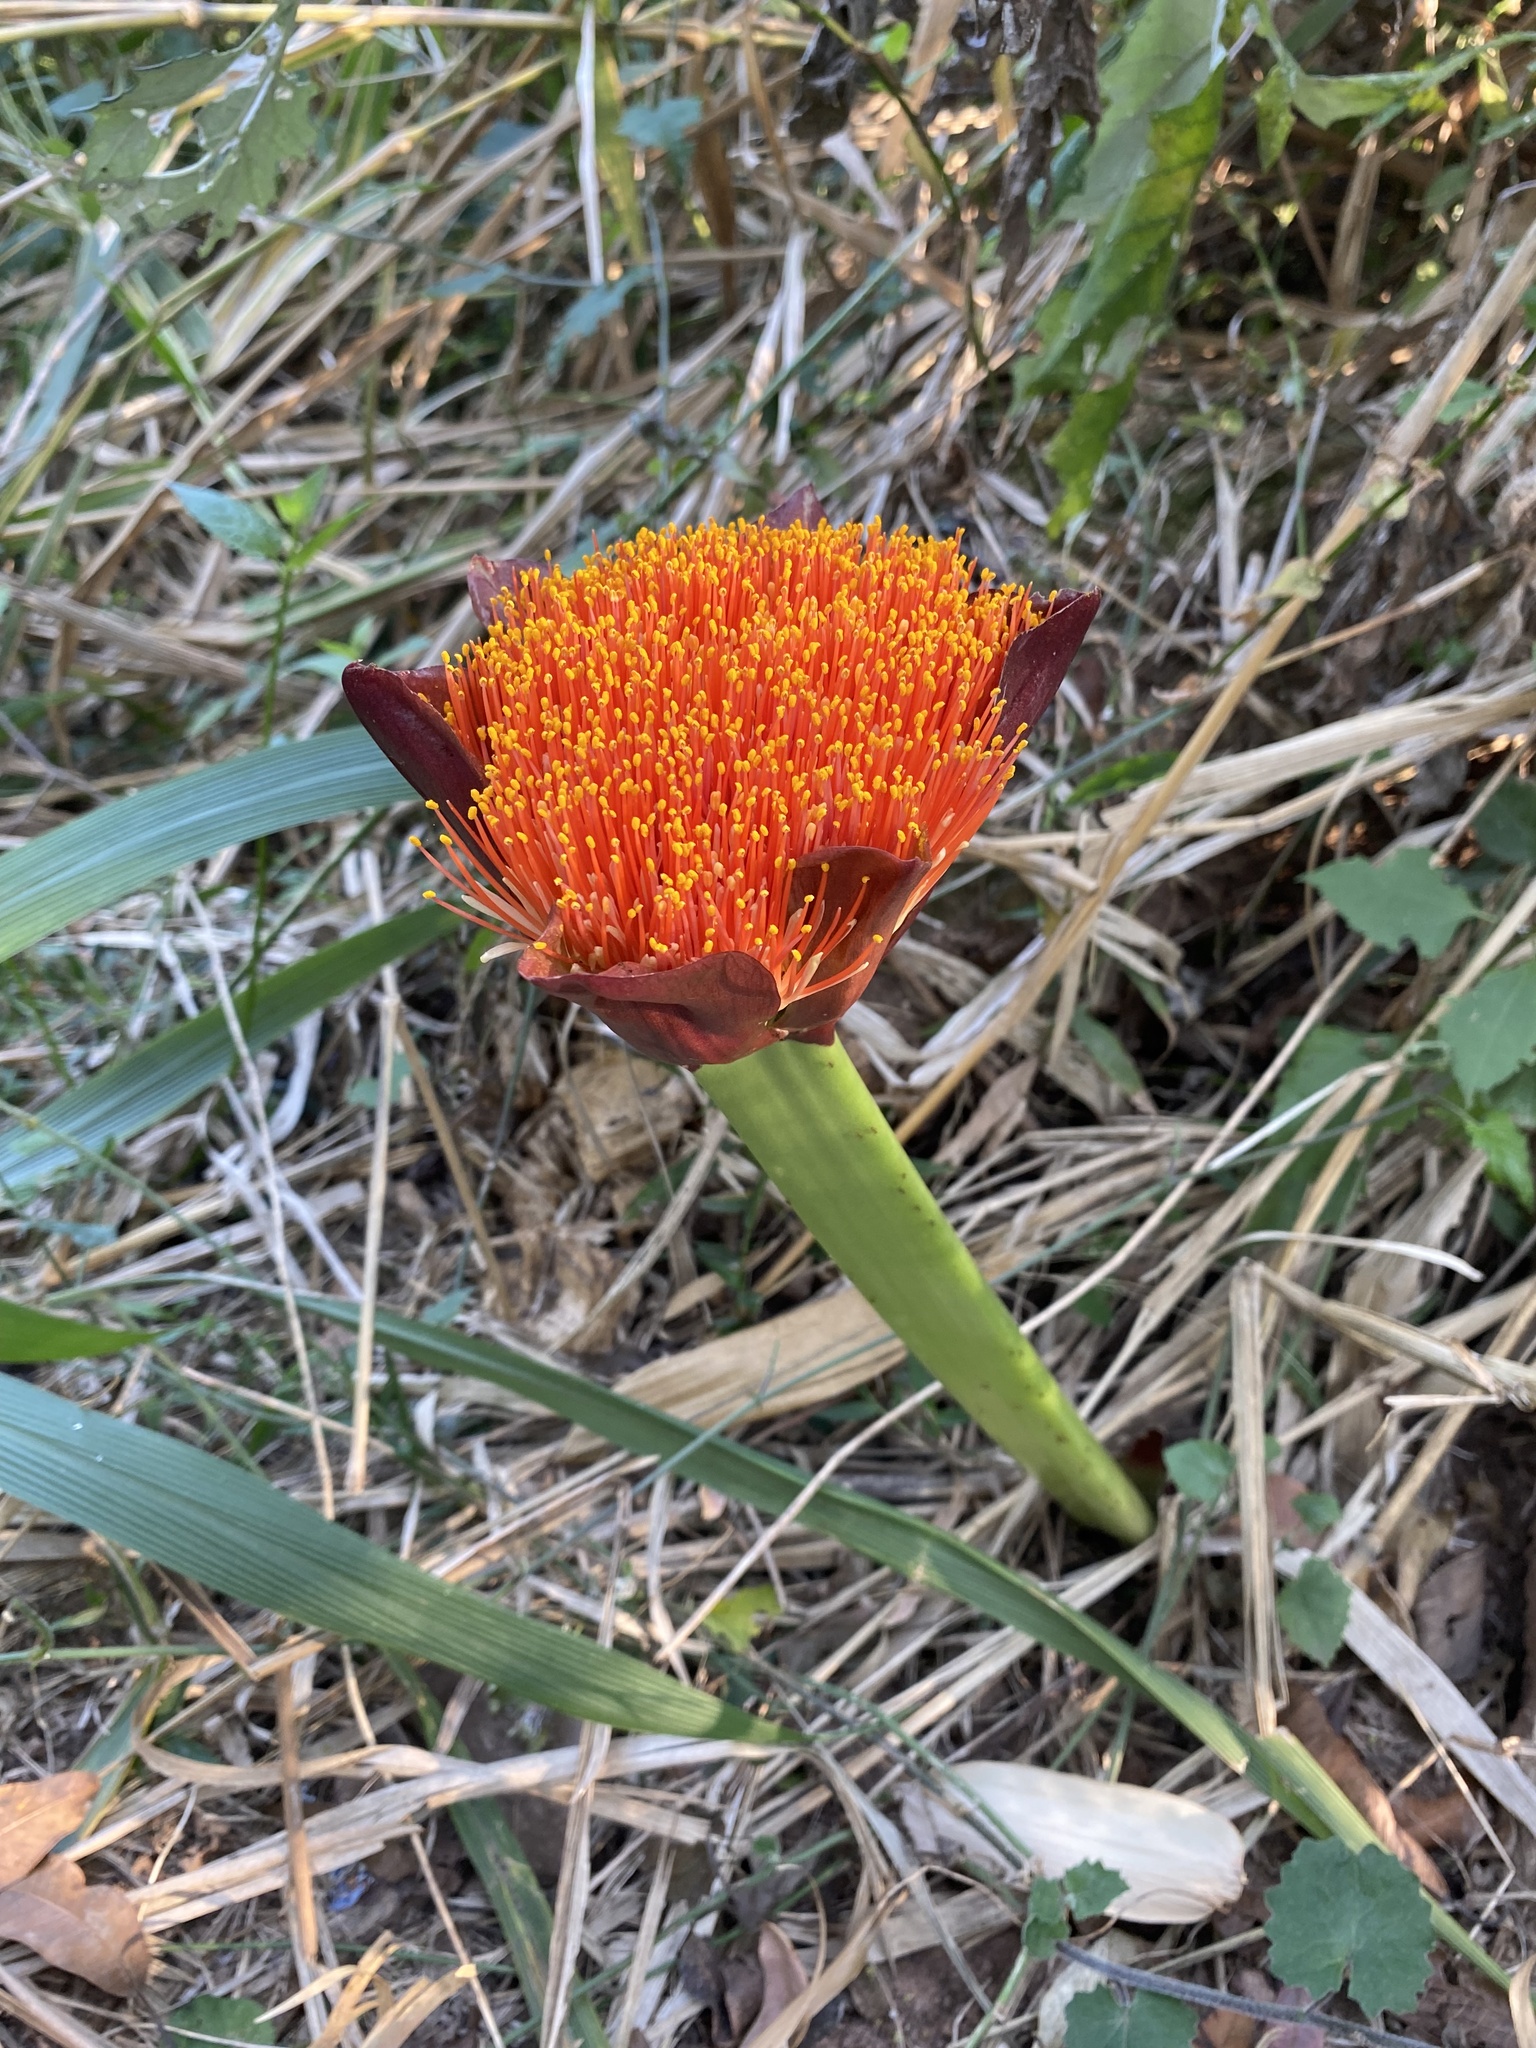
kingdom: Plantae
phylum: Tracheophyta
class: Liliopsida
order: Asparagales
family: Amaryllidaceae
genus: Scadoxus
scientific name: Scadoxus puniceus
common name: Royal-paintbrush
